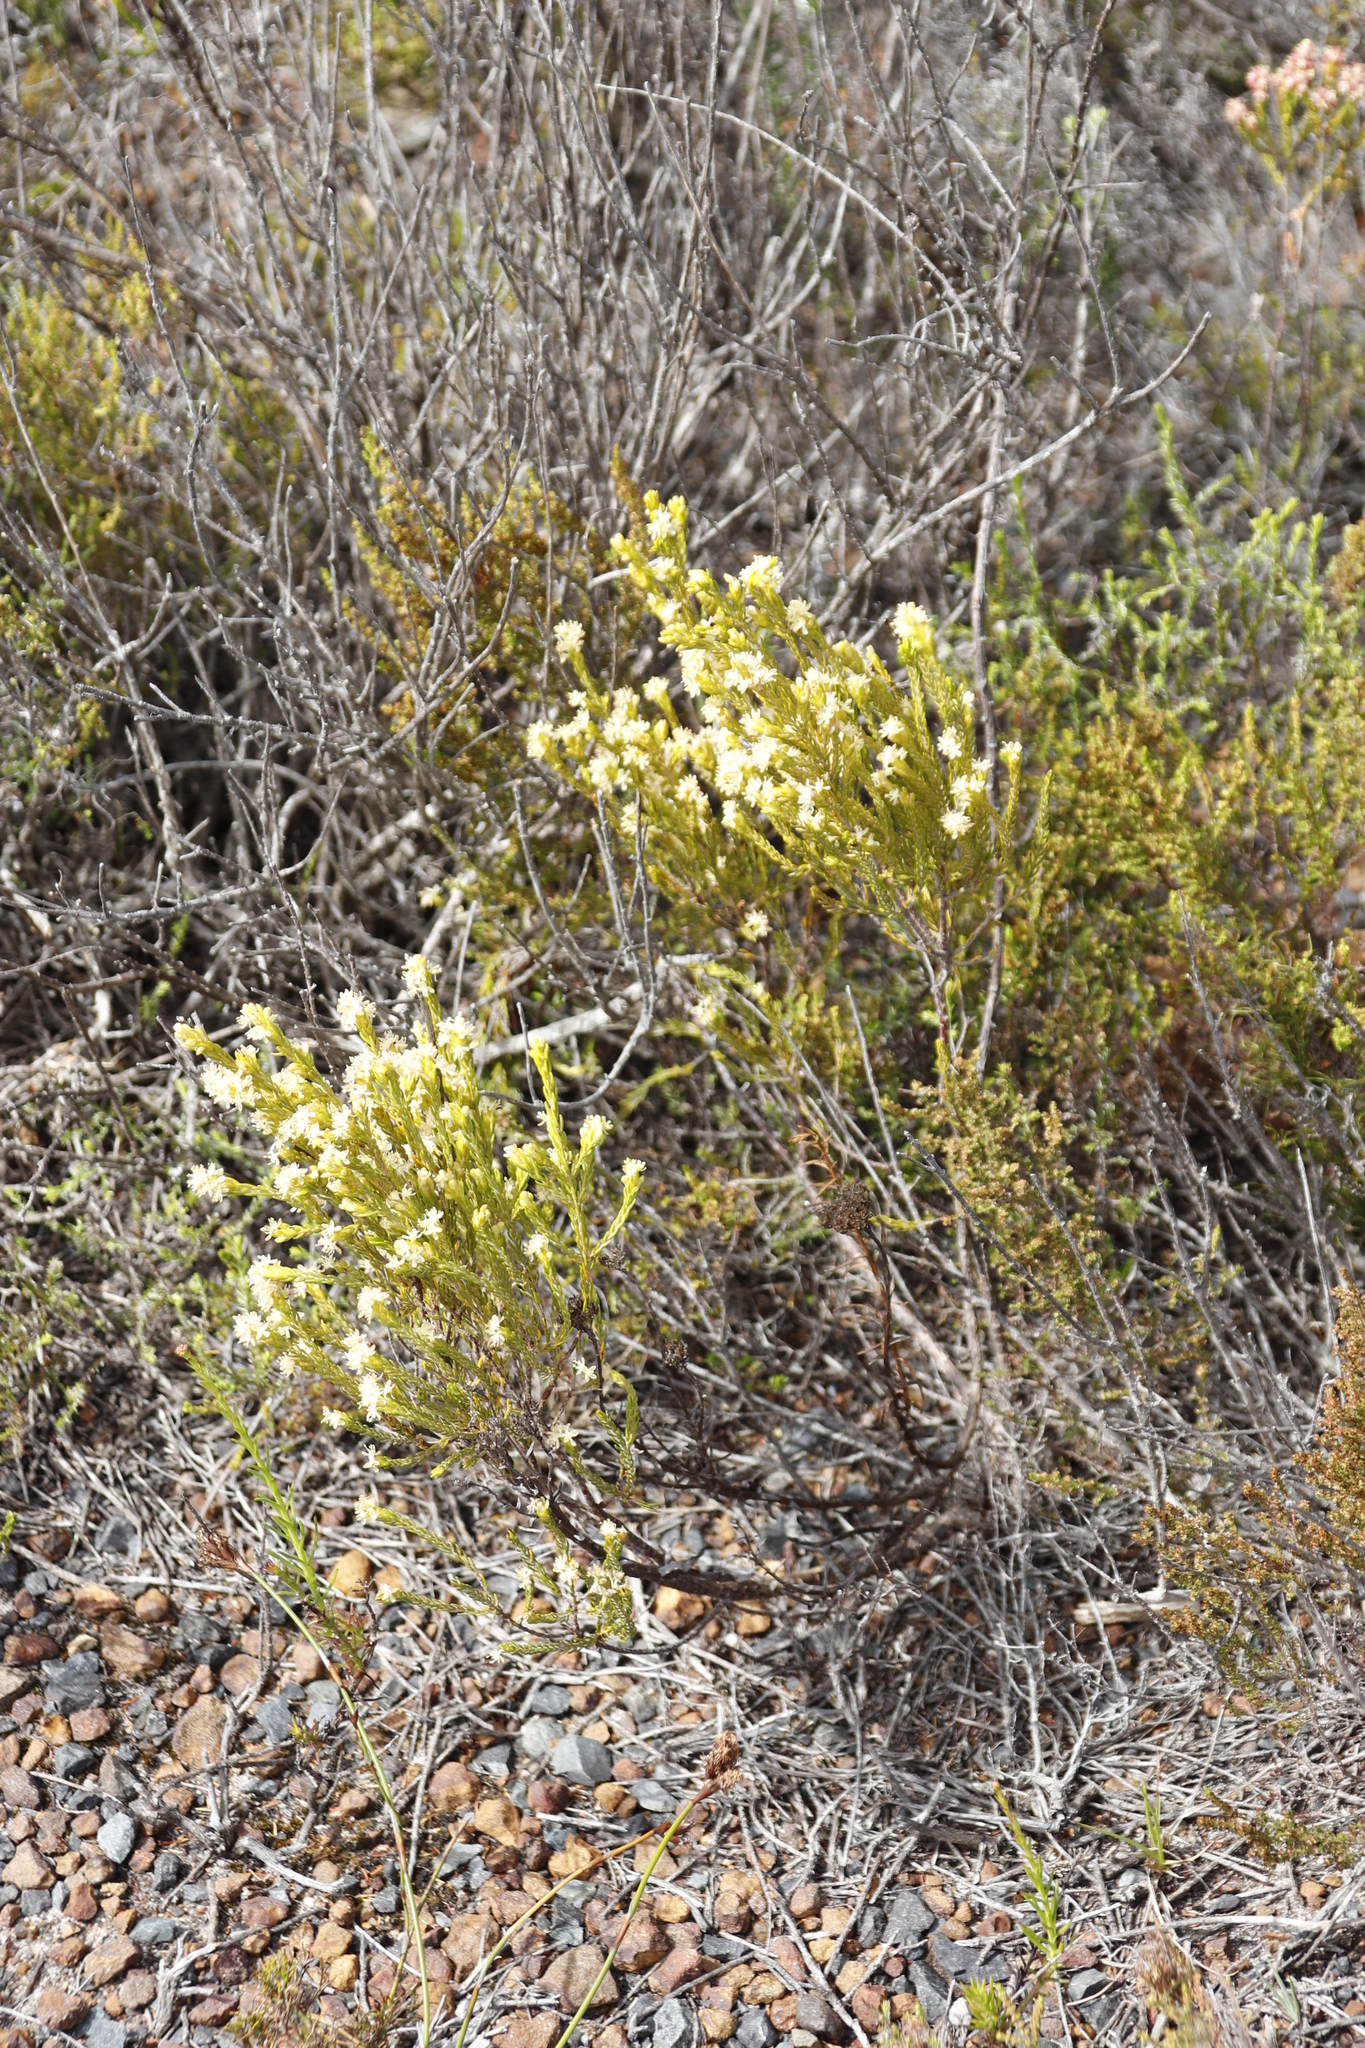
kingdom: Plantae
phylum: Tracheophyta
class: Magnoliopsida
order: Malvales
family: Thymelaeaceae
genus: Passerina
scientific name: Passerina corymbosa
